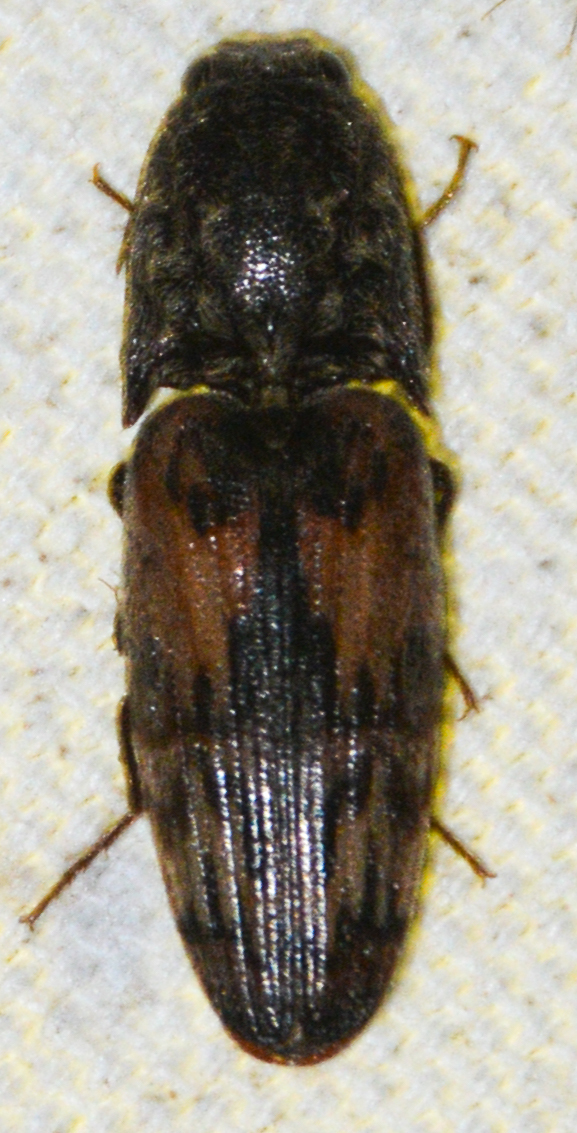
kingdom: Animalia
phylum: Arthropoda
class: Insecta
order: Coleoptera
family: Elateridae
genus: Pherhimius
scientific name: Pherhimius fascicularis
